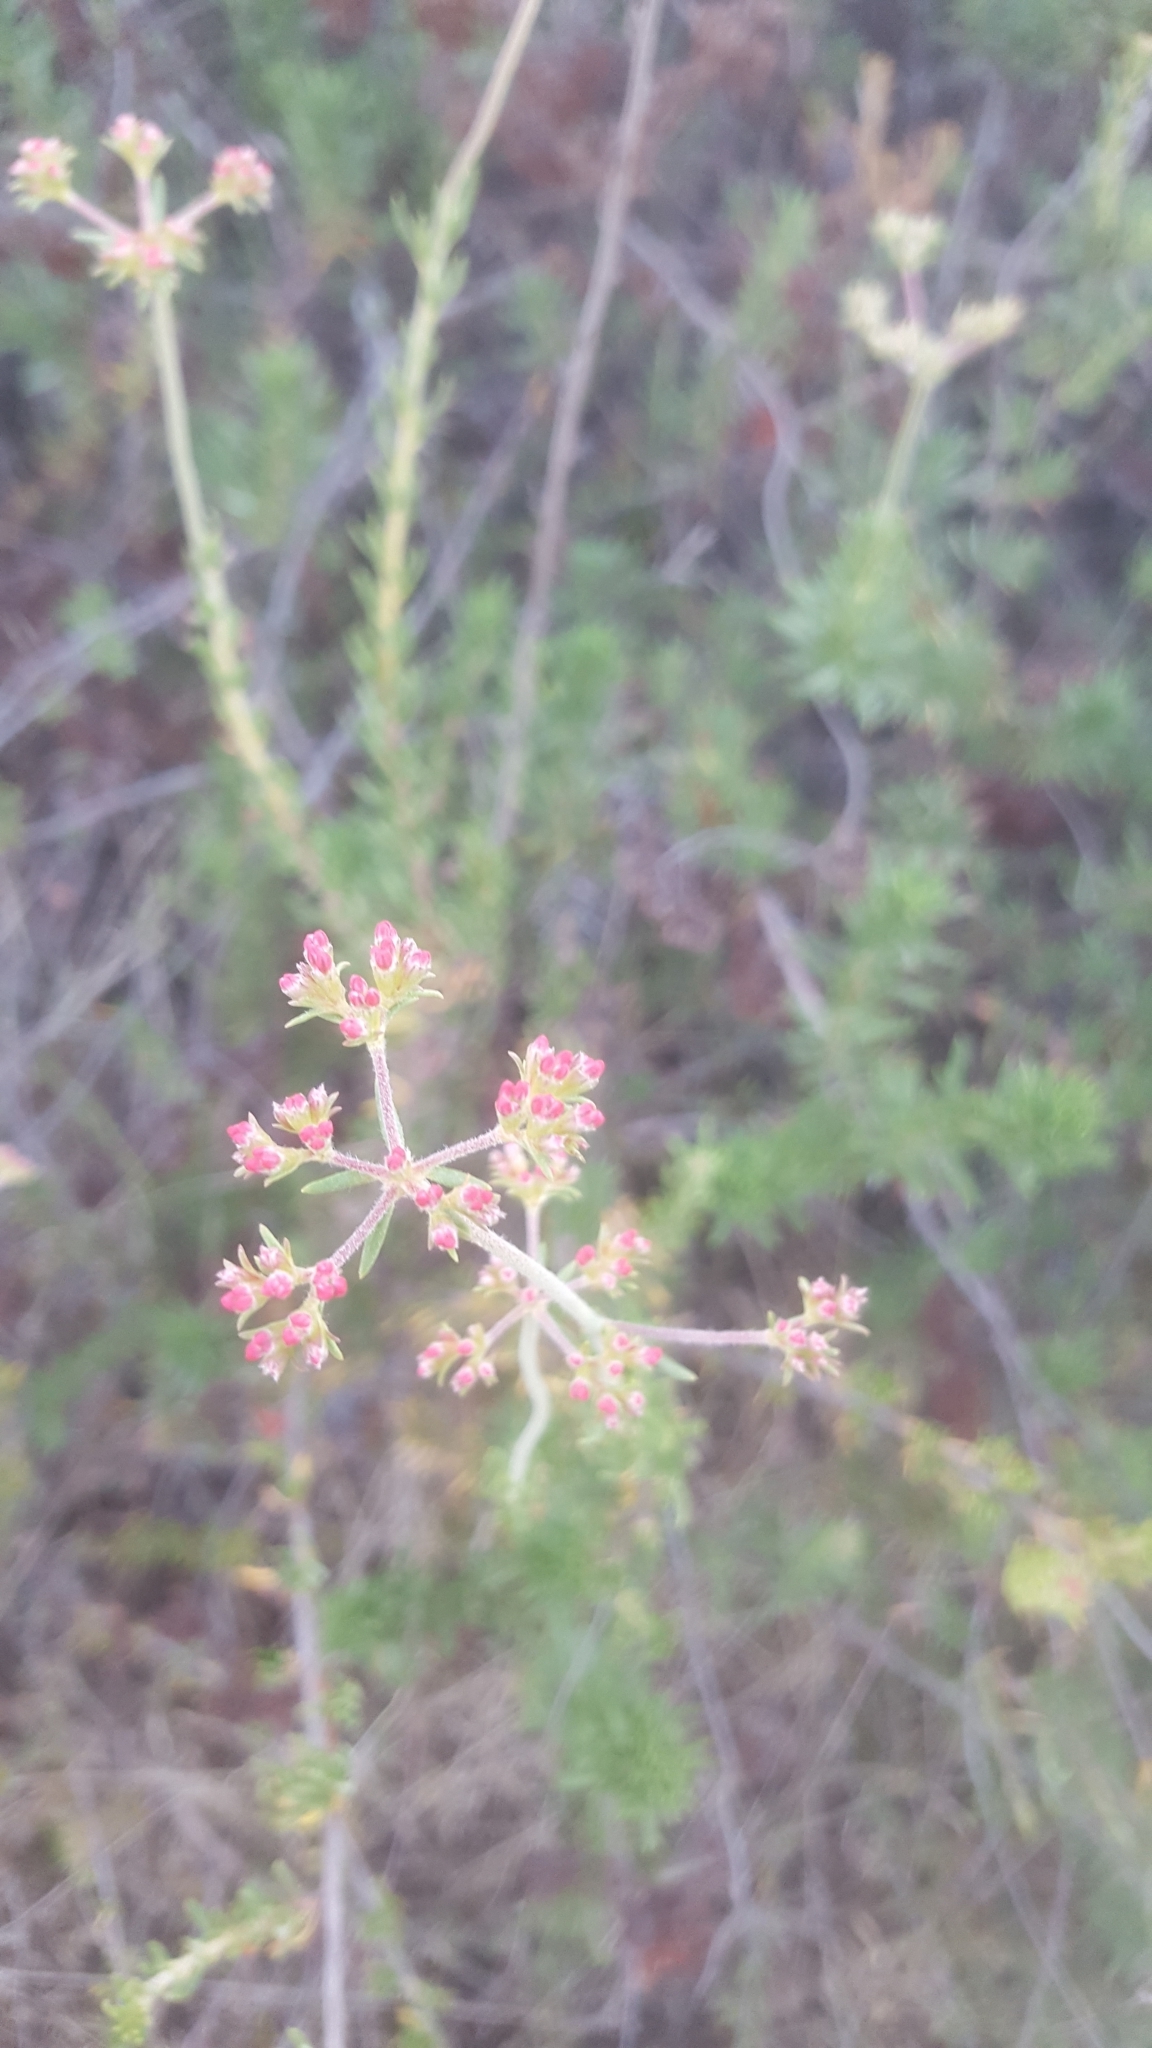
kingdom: Plantae
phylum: Tracheophyta
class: Magnoliopsida
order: Caryophyllales
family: Polygonaceae
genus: Eriogonum
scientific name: Eriogonum fasciculatum
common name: California wild buckwheat
